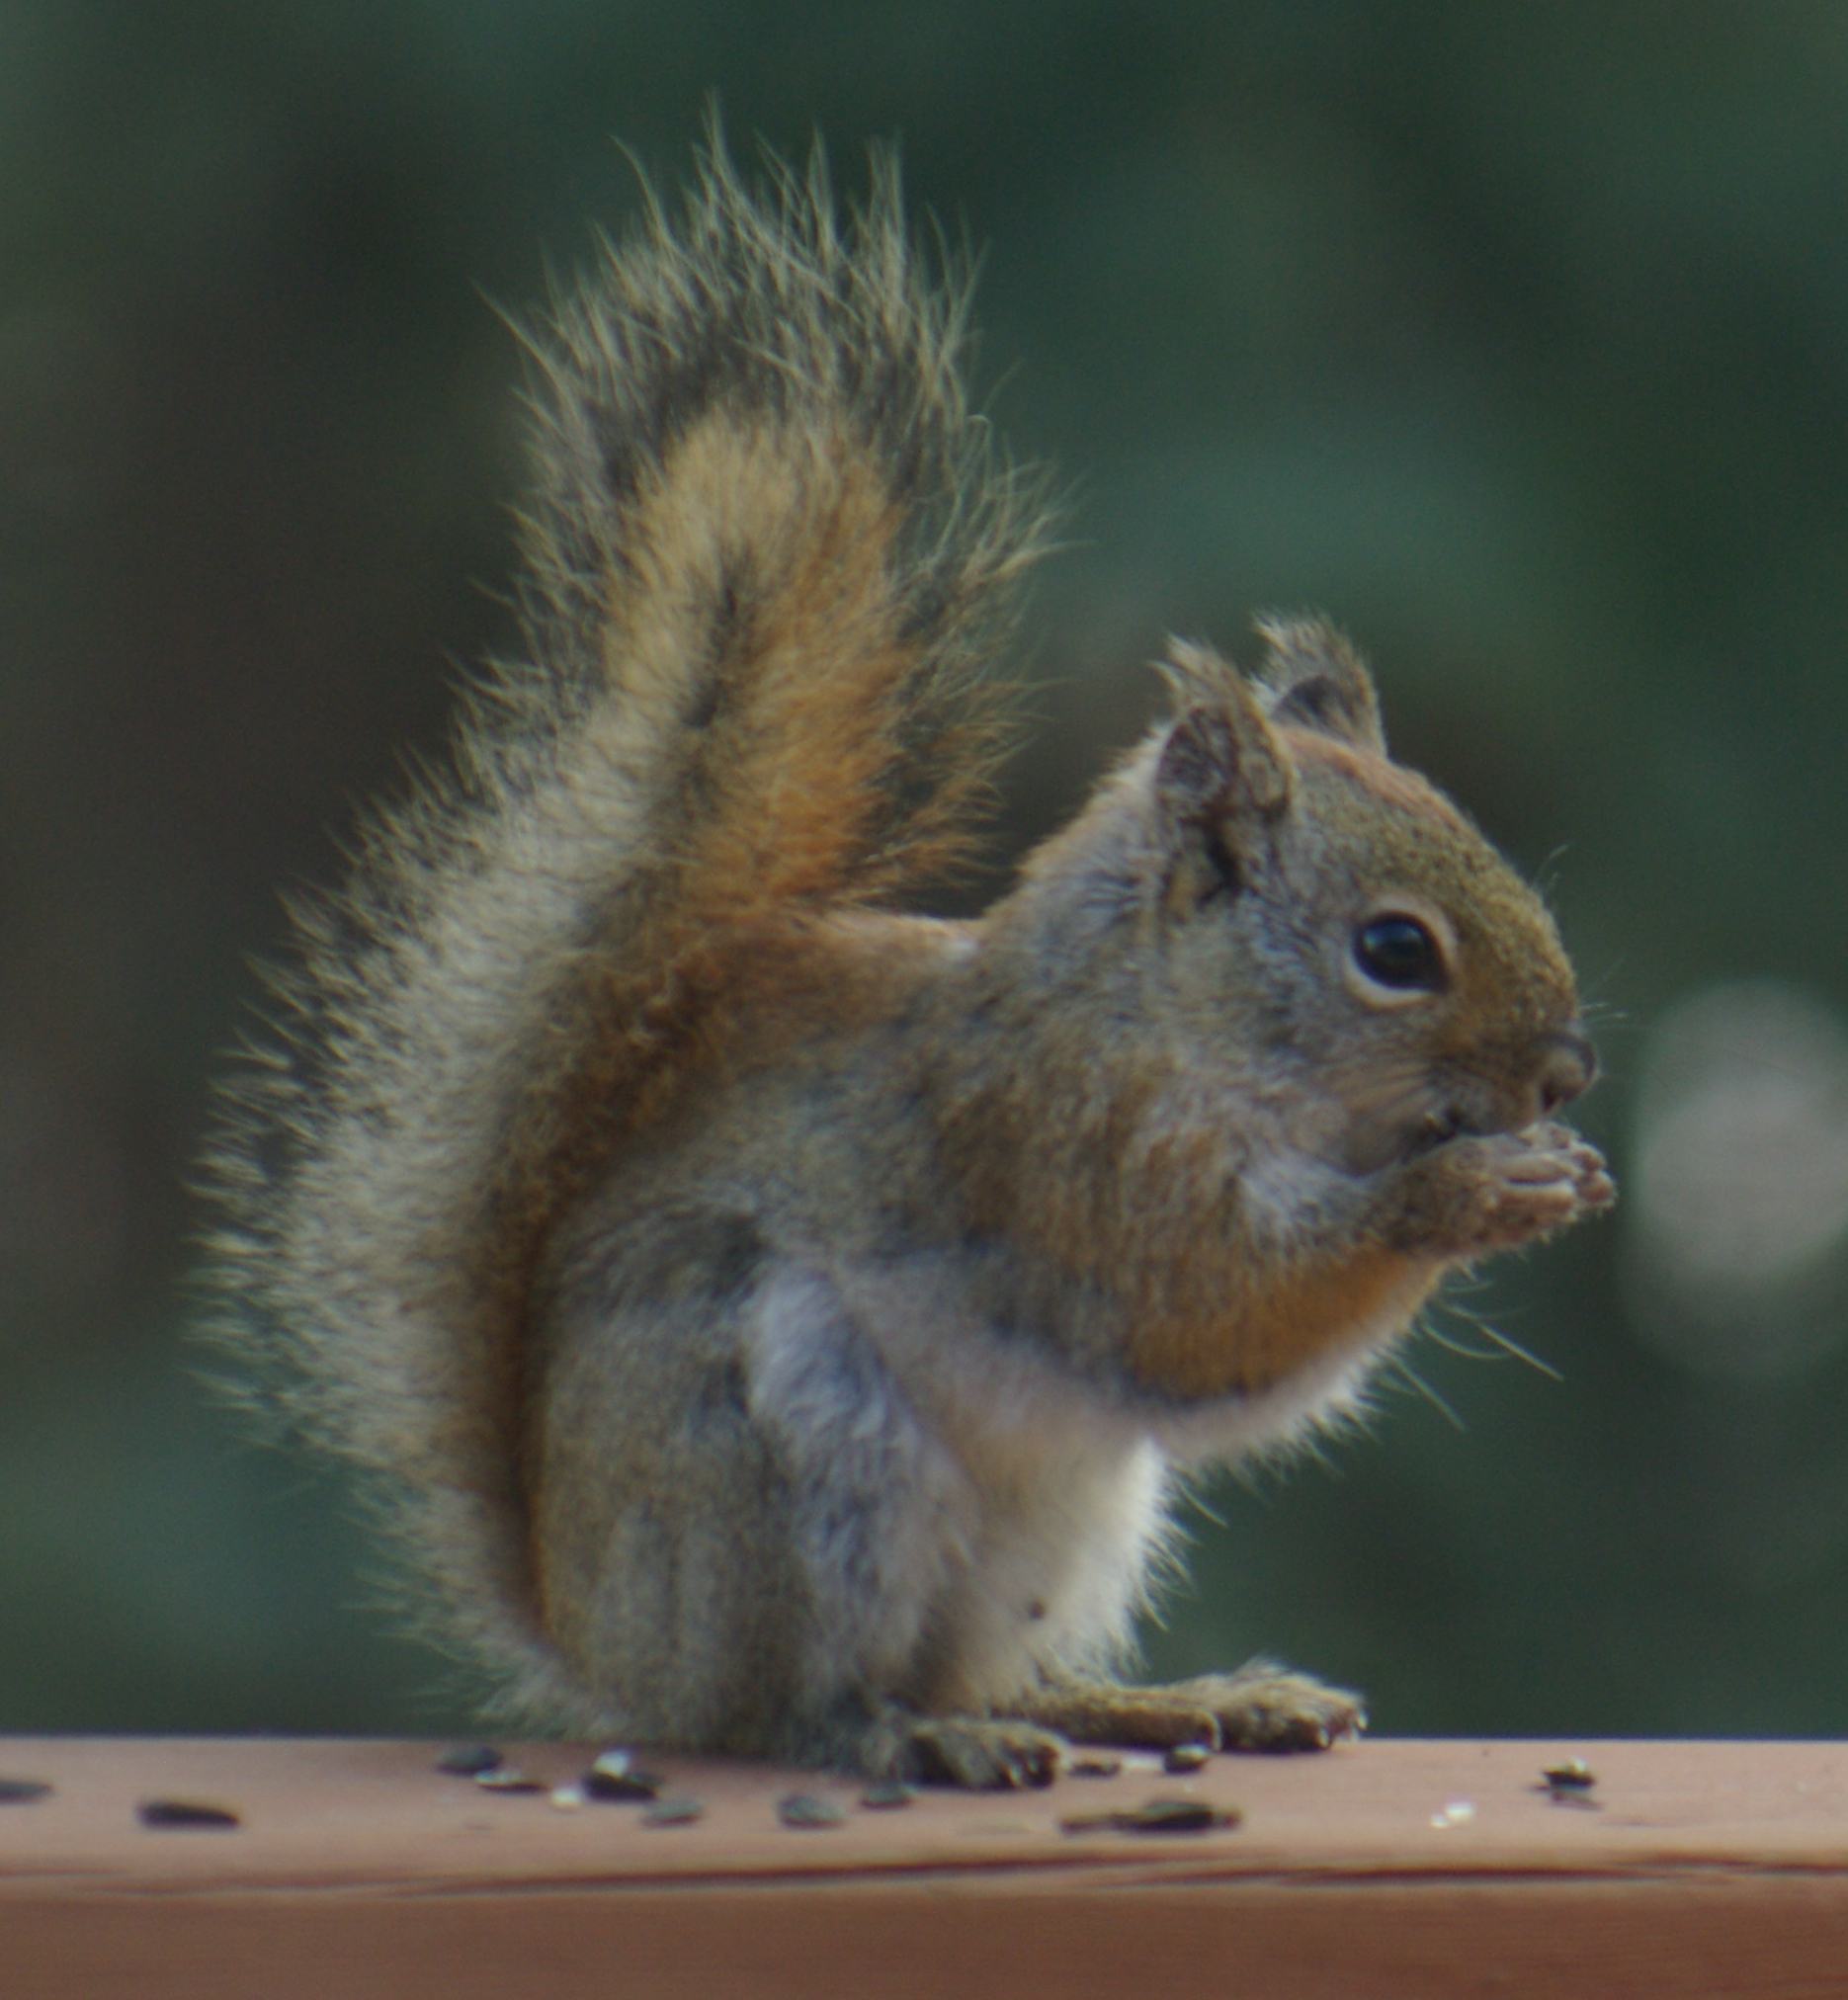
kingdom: Animalia
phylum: Chordata
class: Mammalia
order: Rodentia
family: Sciuridae
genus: Tamiasciurus
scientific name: Tamiasciurus hudsonicus
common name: Red squirrel
